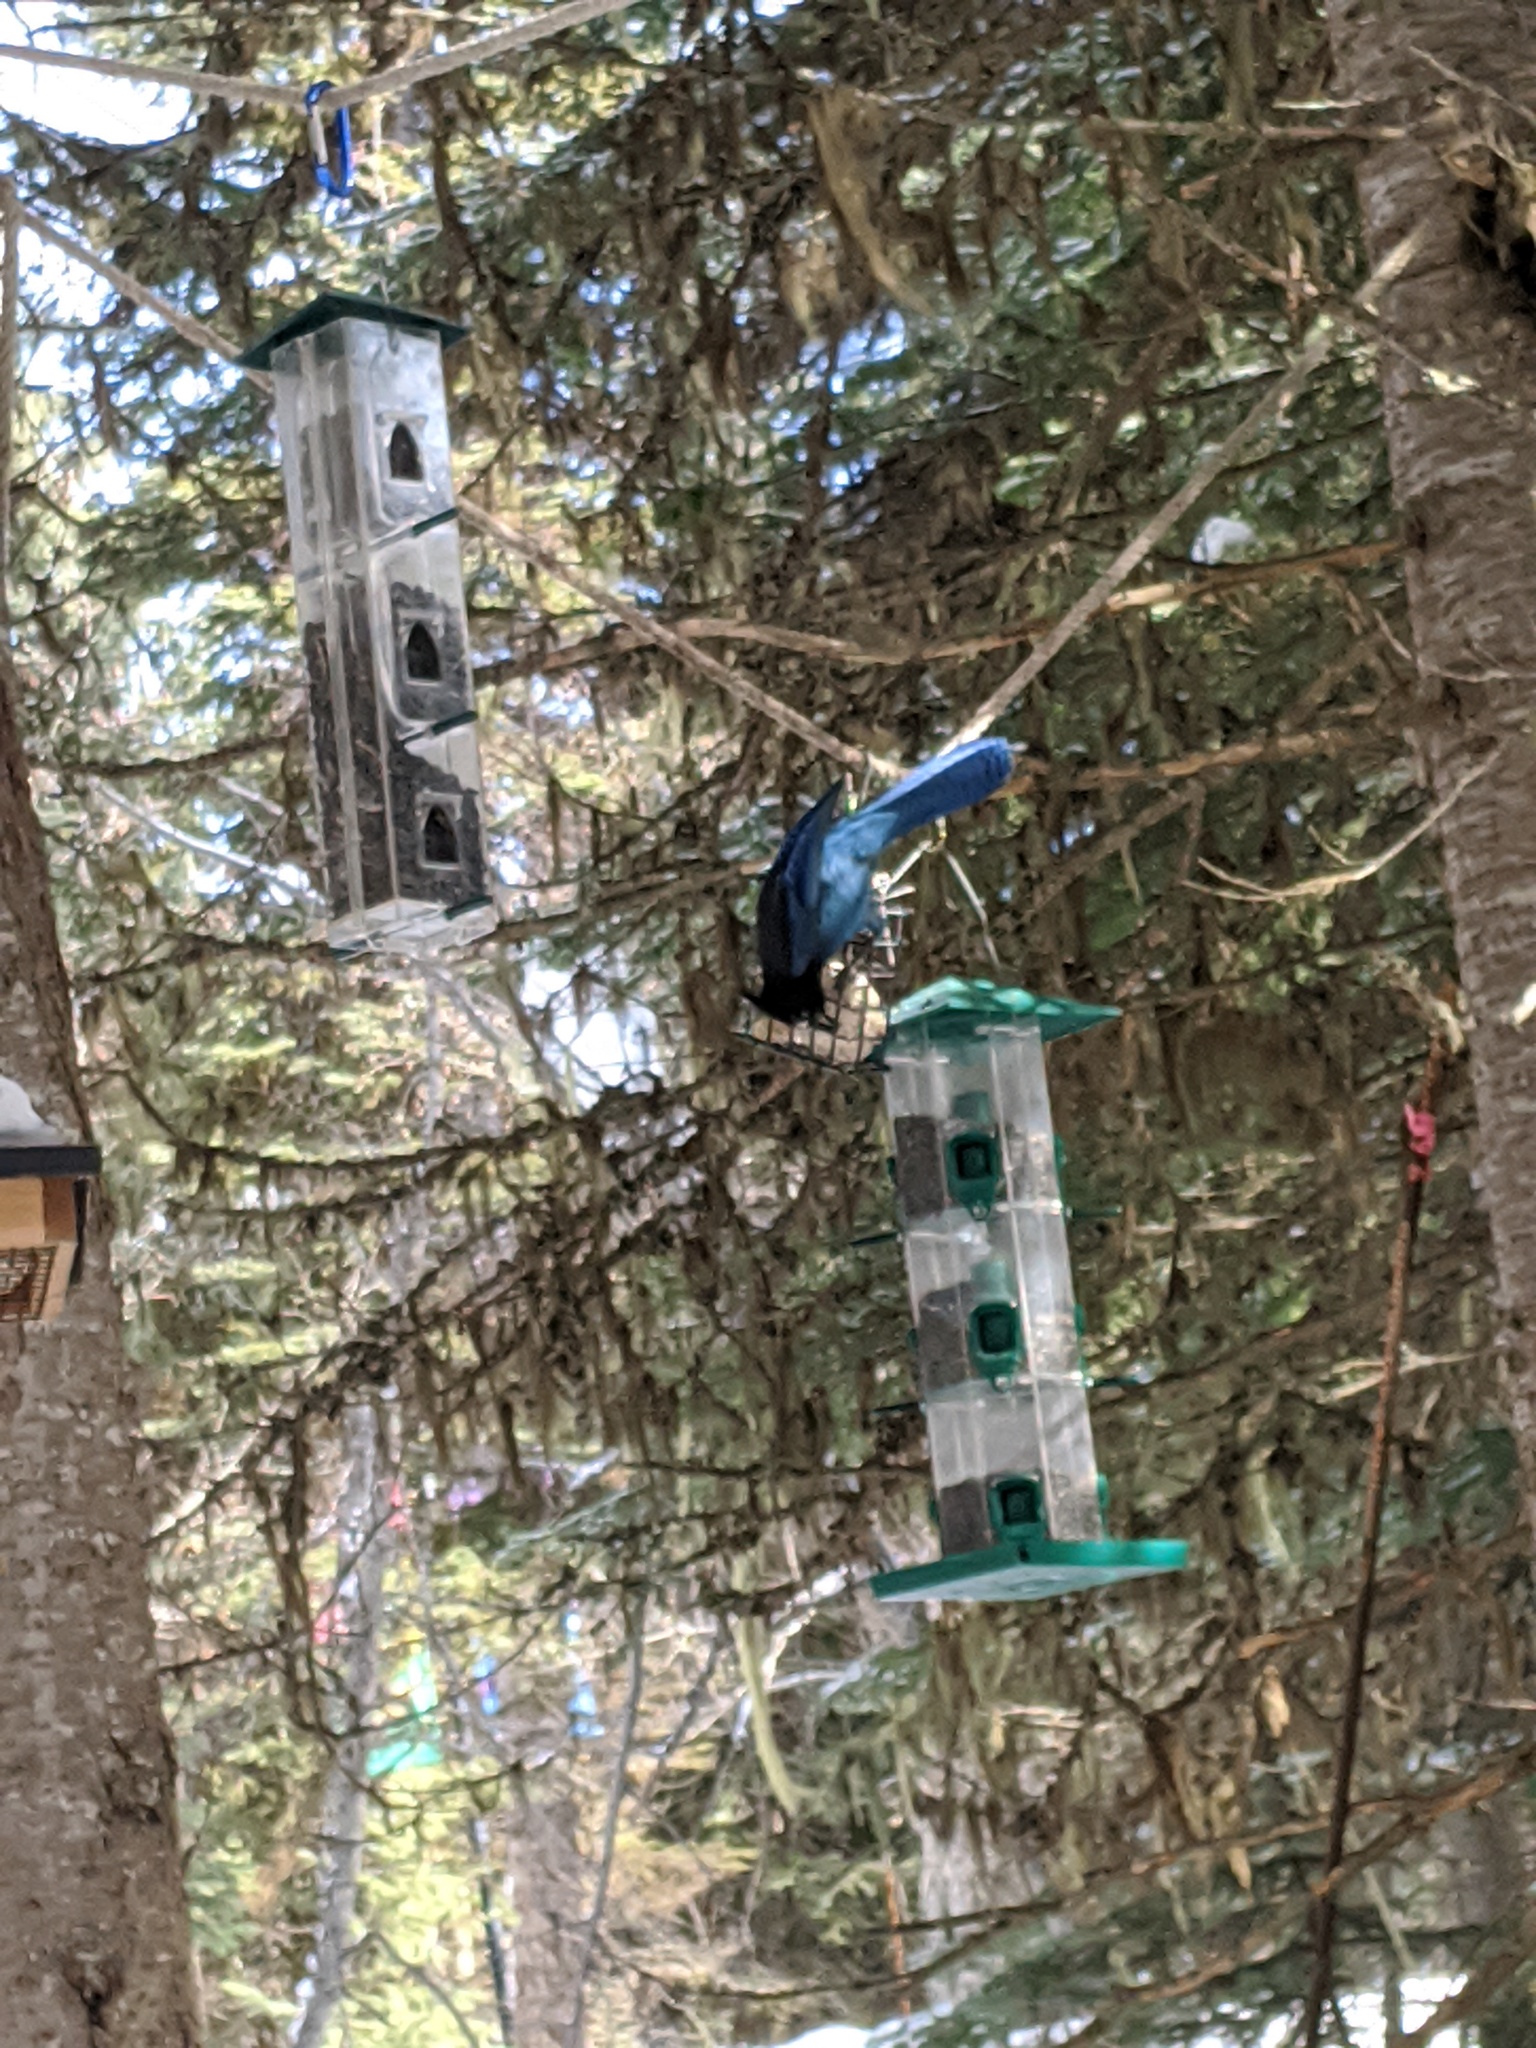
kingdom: Animalia
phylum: Chordata
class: Aves
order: Passeriformes
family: Corvidae
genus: Cyanocitta
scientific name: Cyanocitta stelleri
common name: Steller's jay
